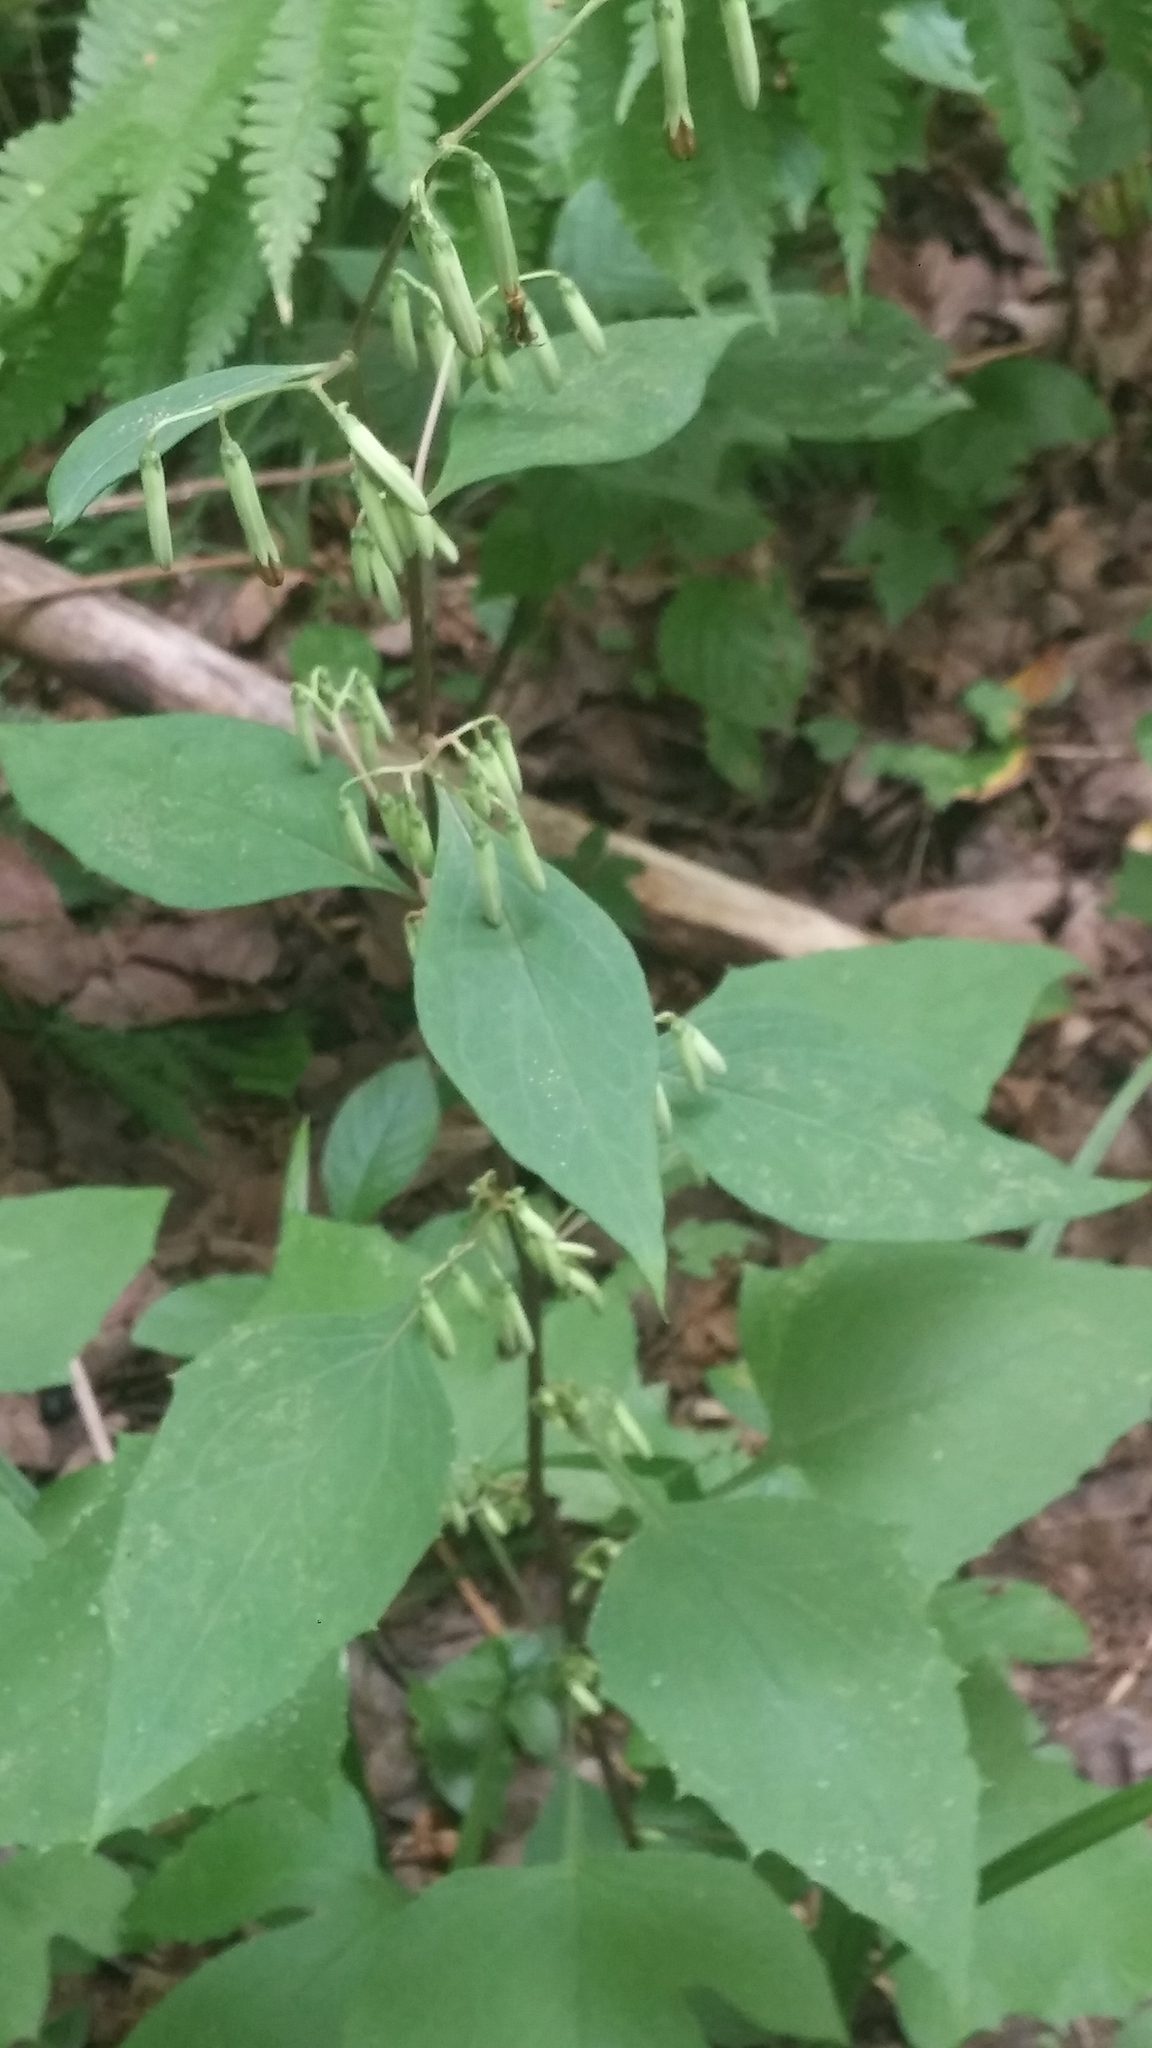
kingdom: Plantae
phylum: Tracheophyta
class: Magnoliopsida
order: Asterales
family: Asteraceae
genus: Nabalus
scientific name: Nabalus altissima
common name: Tall rattlesnakeroot
